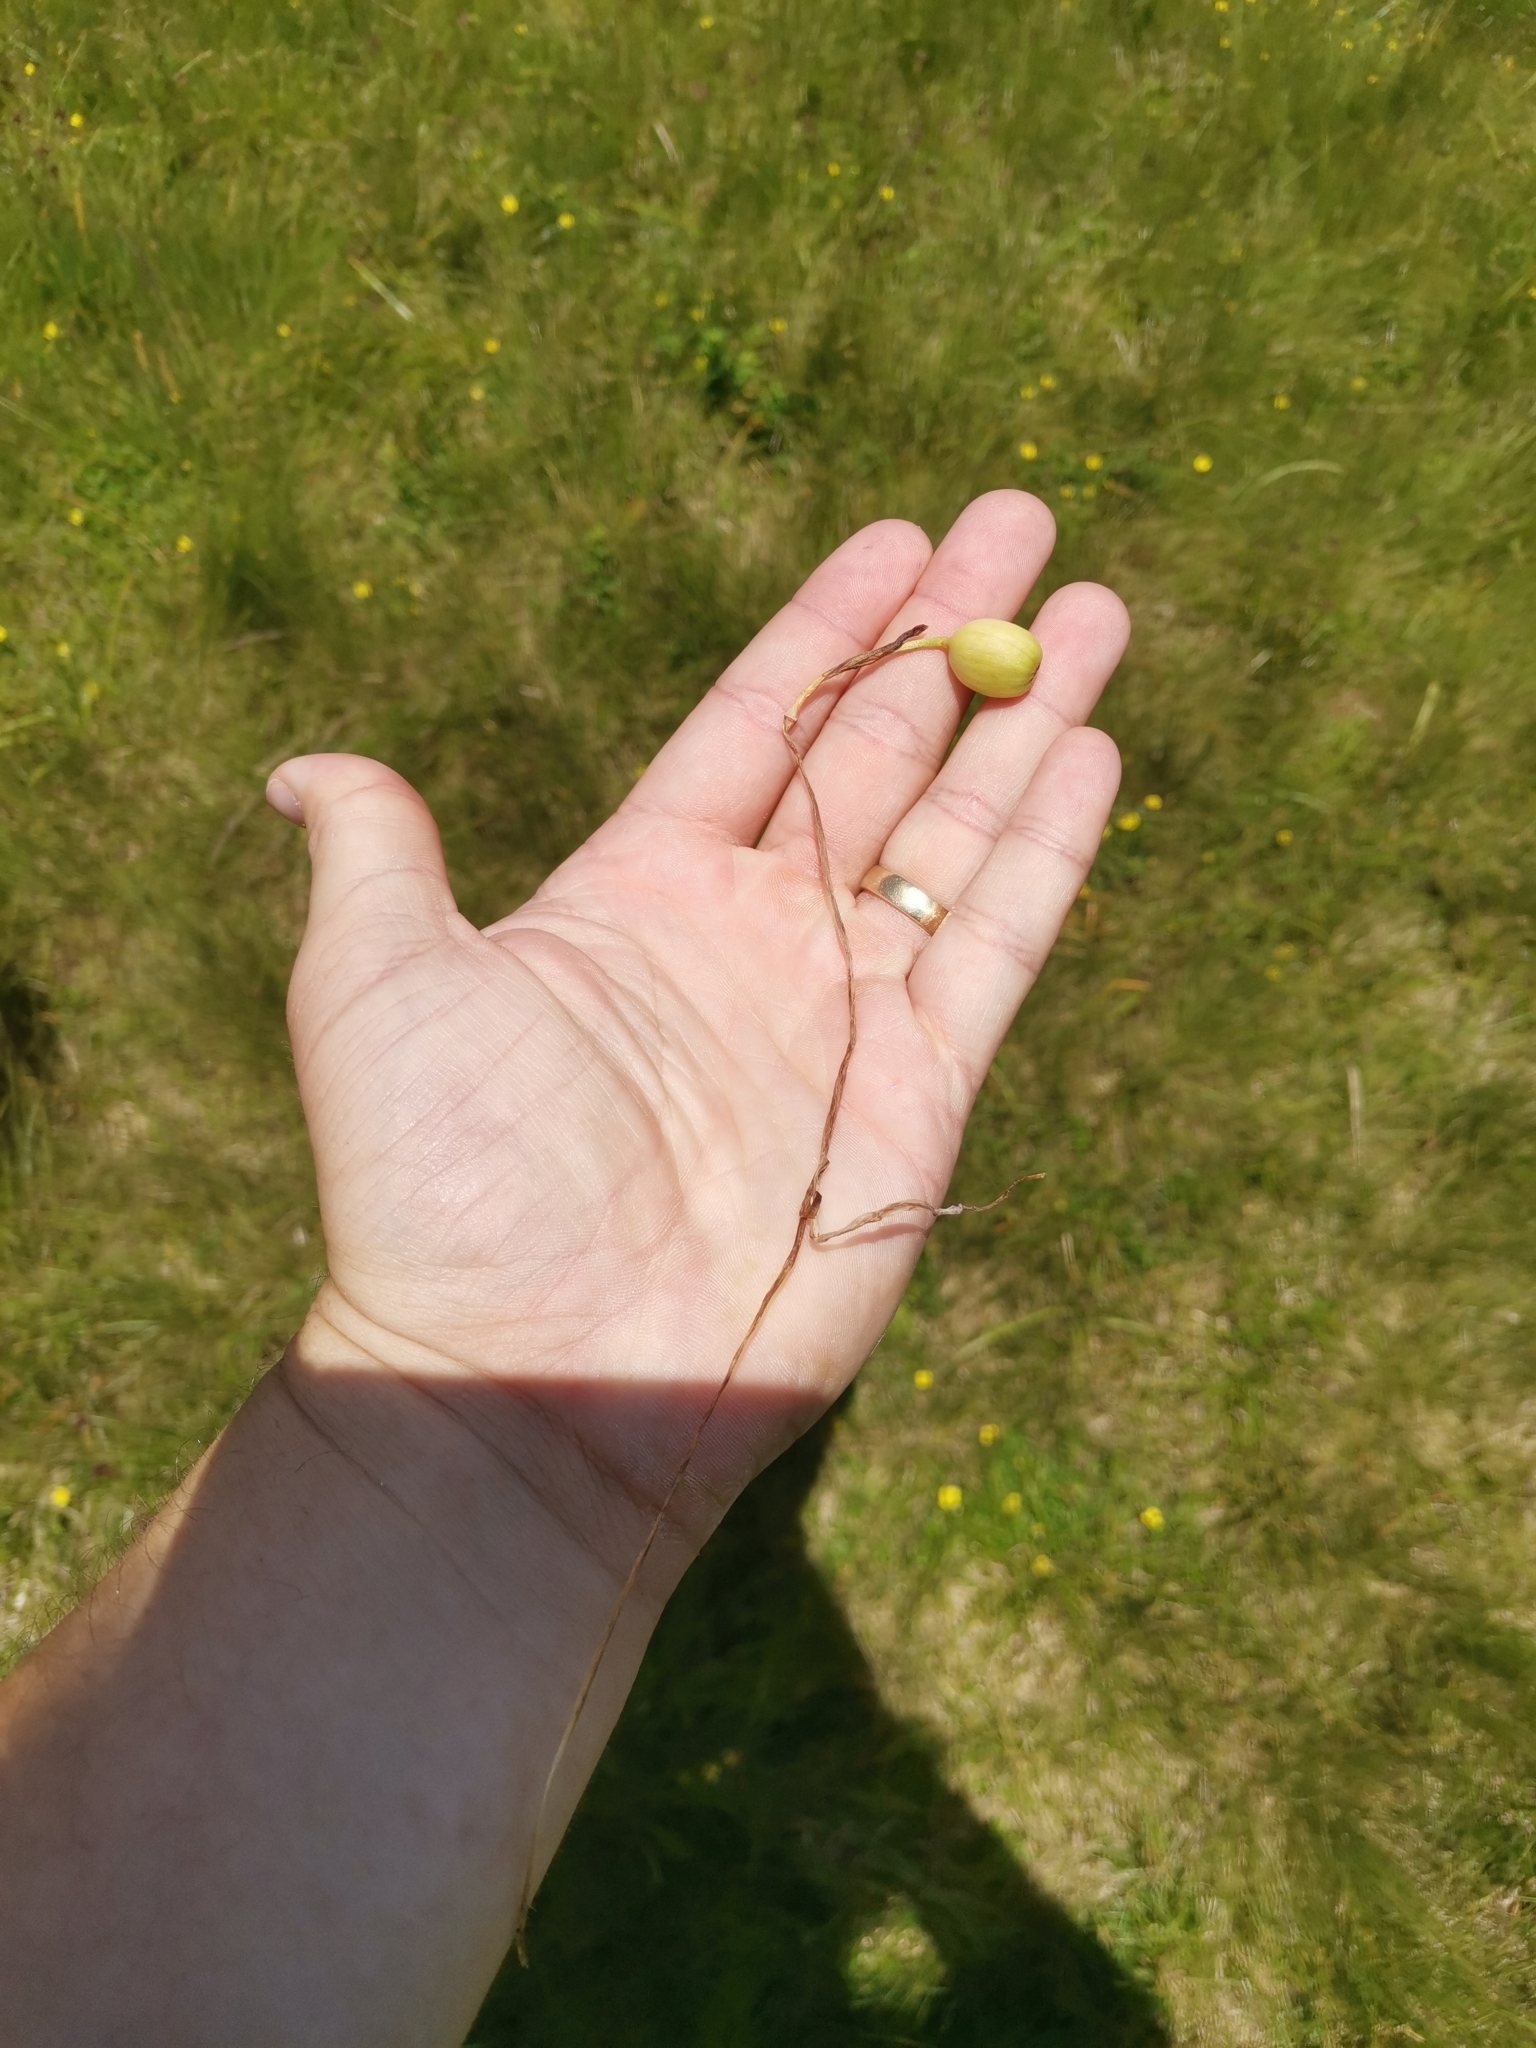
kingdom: Plantae
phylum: Tracheophyta
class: Liliopsida
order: Asparagales
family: Amaryllidaceae
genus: Galanthus
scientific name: Galanthus nivalis
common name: Snowdrop
